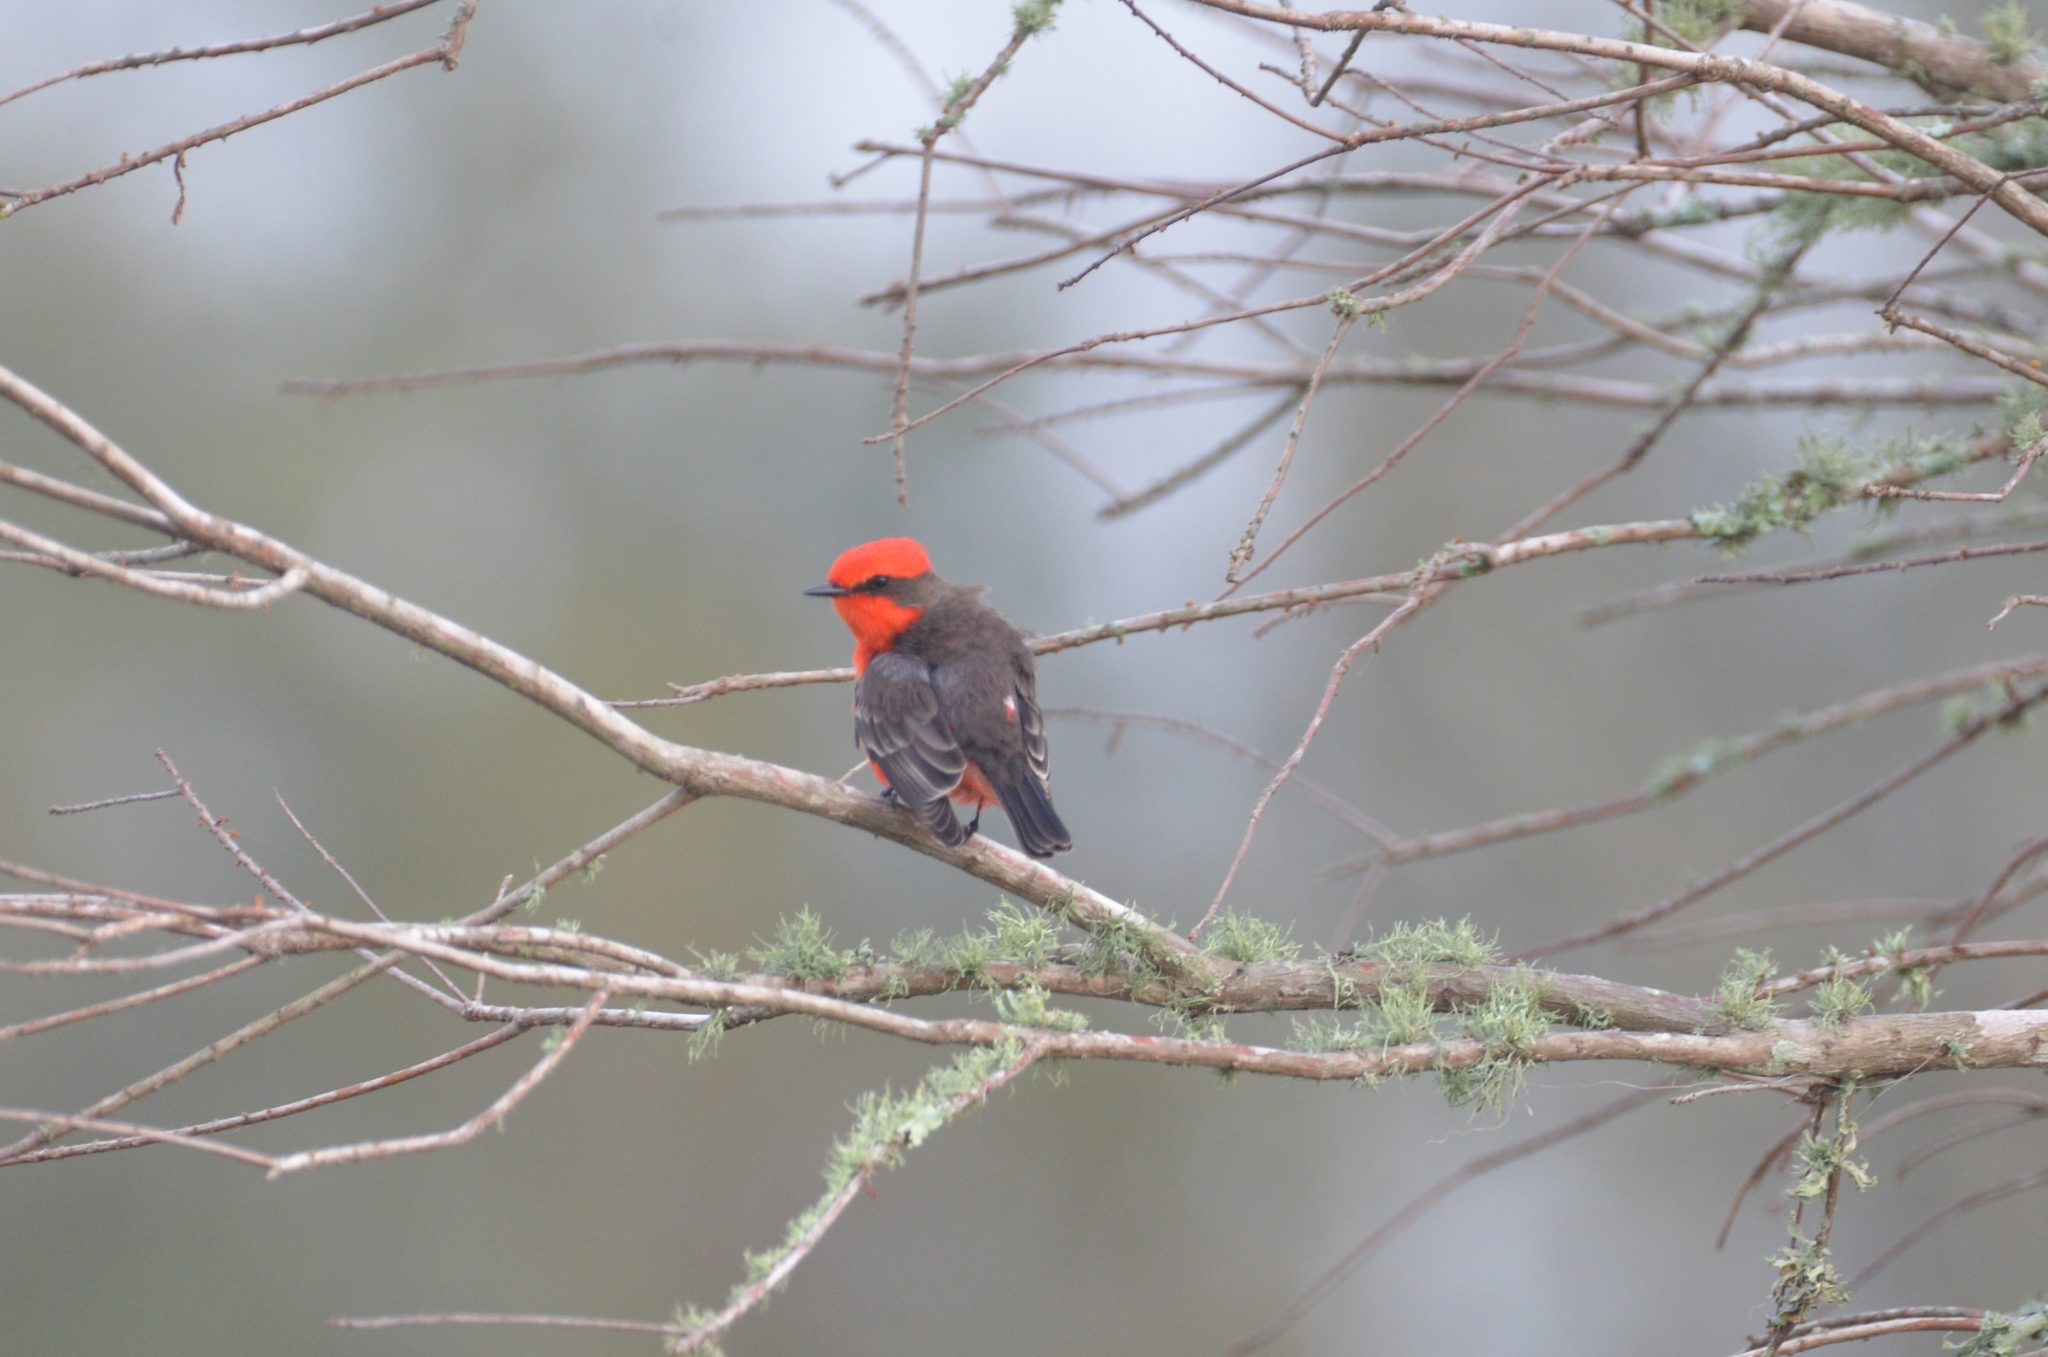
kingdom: Animalia
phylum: Chordata
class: Aves
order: Passeriformes
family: Tyrannidae
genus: Pyrocephalus
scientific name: Pyrocephalus rubinus
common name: Vermilion flycatcher
